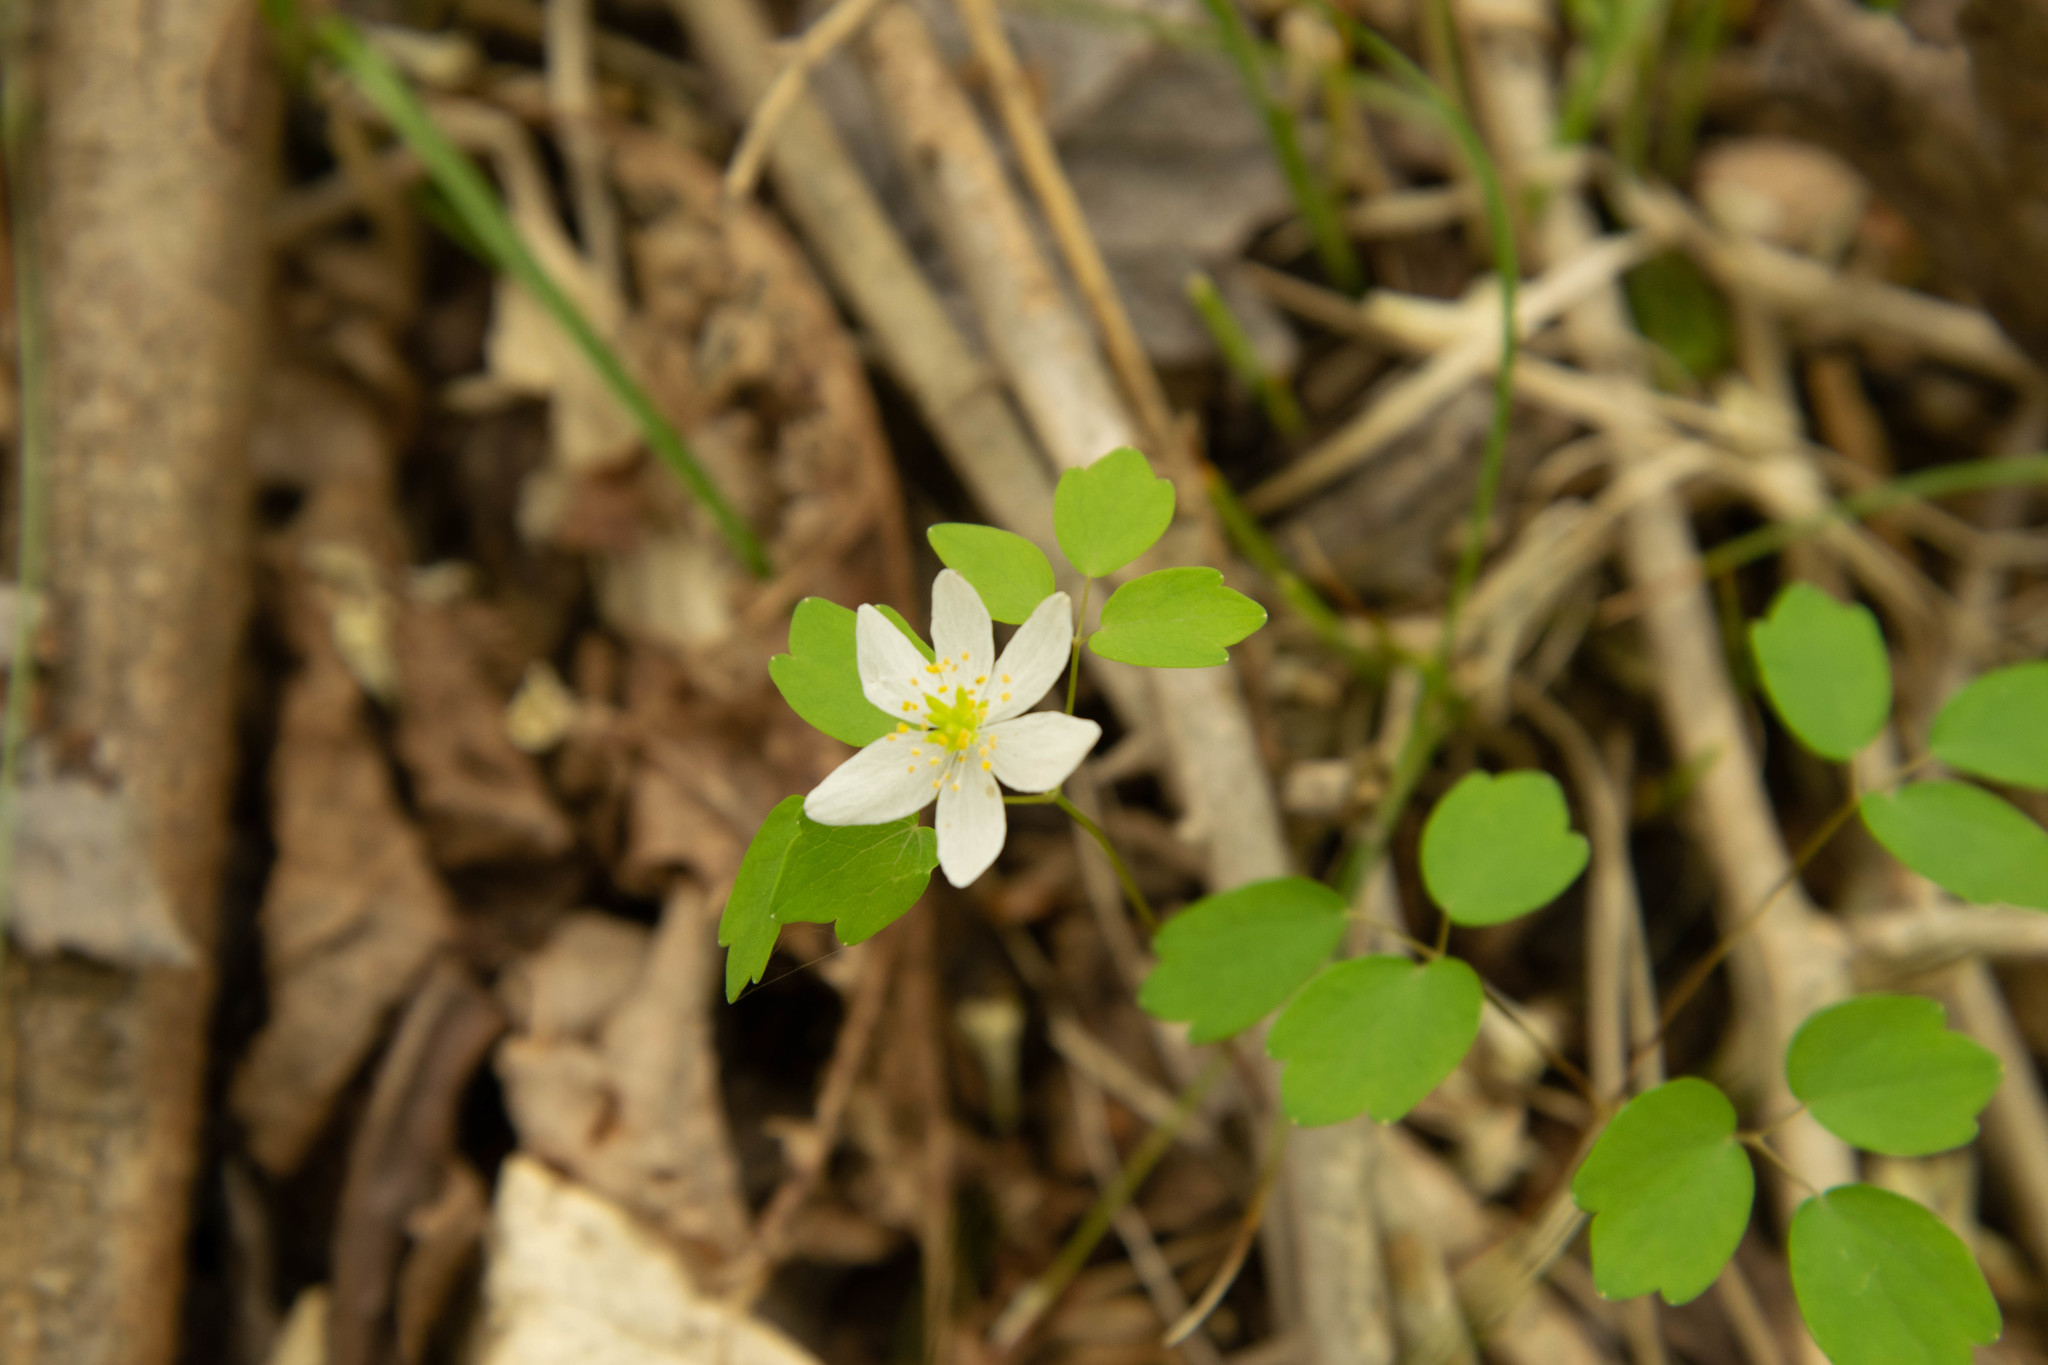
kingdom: Plantae
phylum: Tracheophyta
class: Magnoliopsida
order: Ranunculales
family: Ranunculaceae
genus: Thalictrum
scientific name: Thalictrum thalictroides
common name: Rue-anemone
